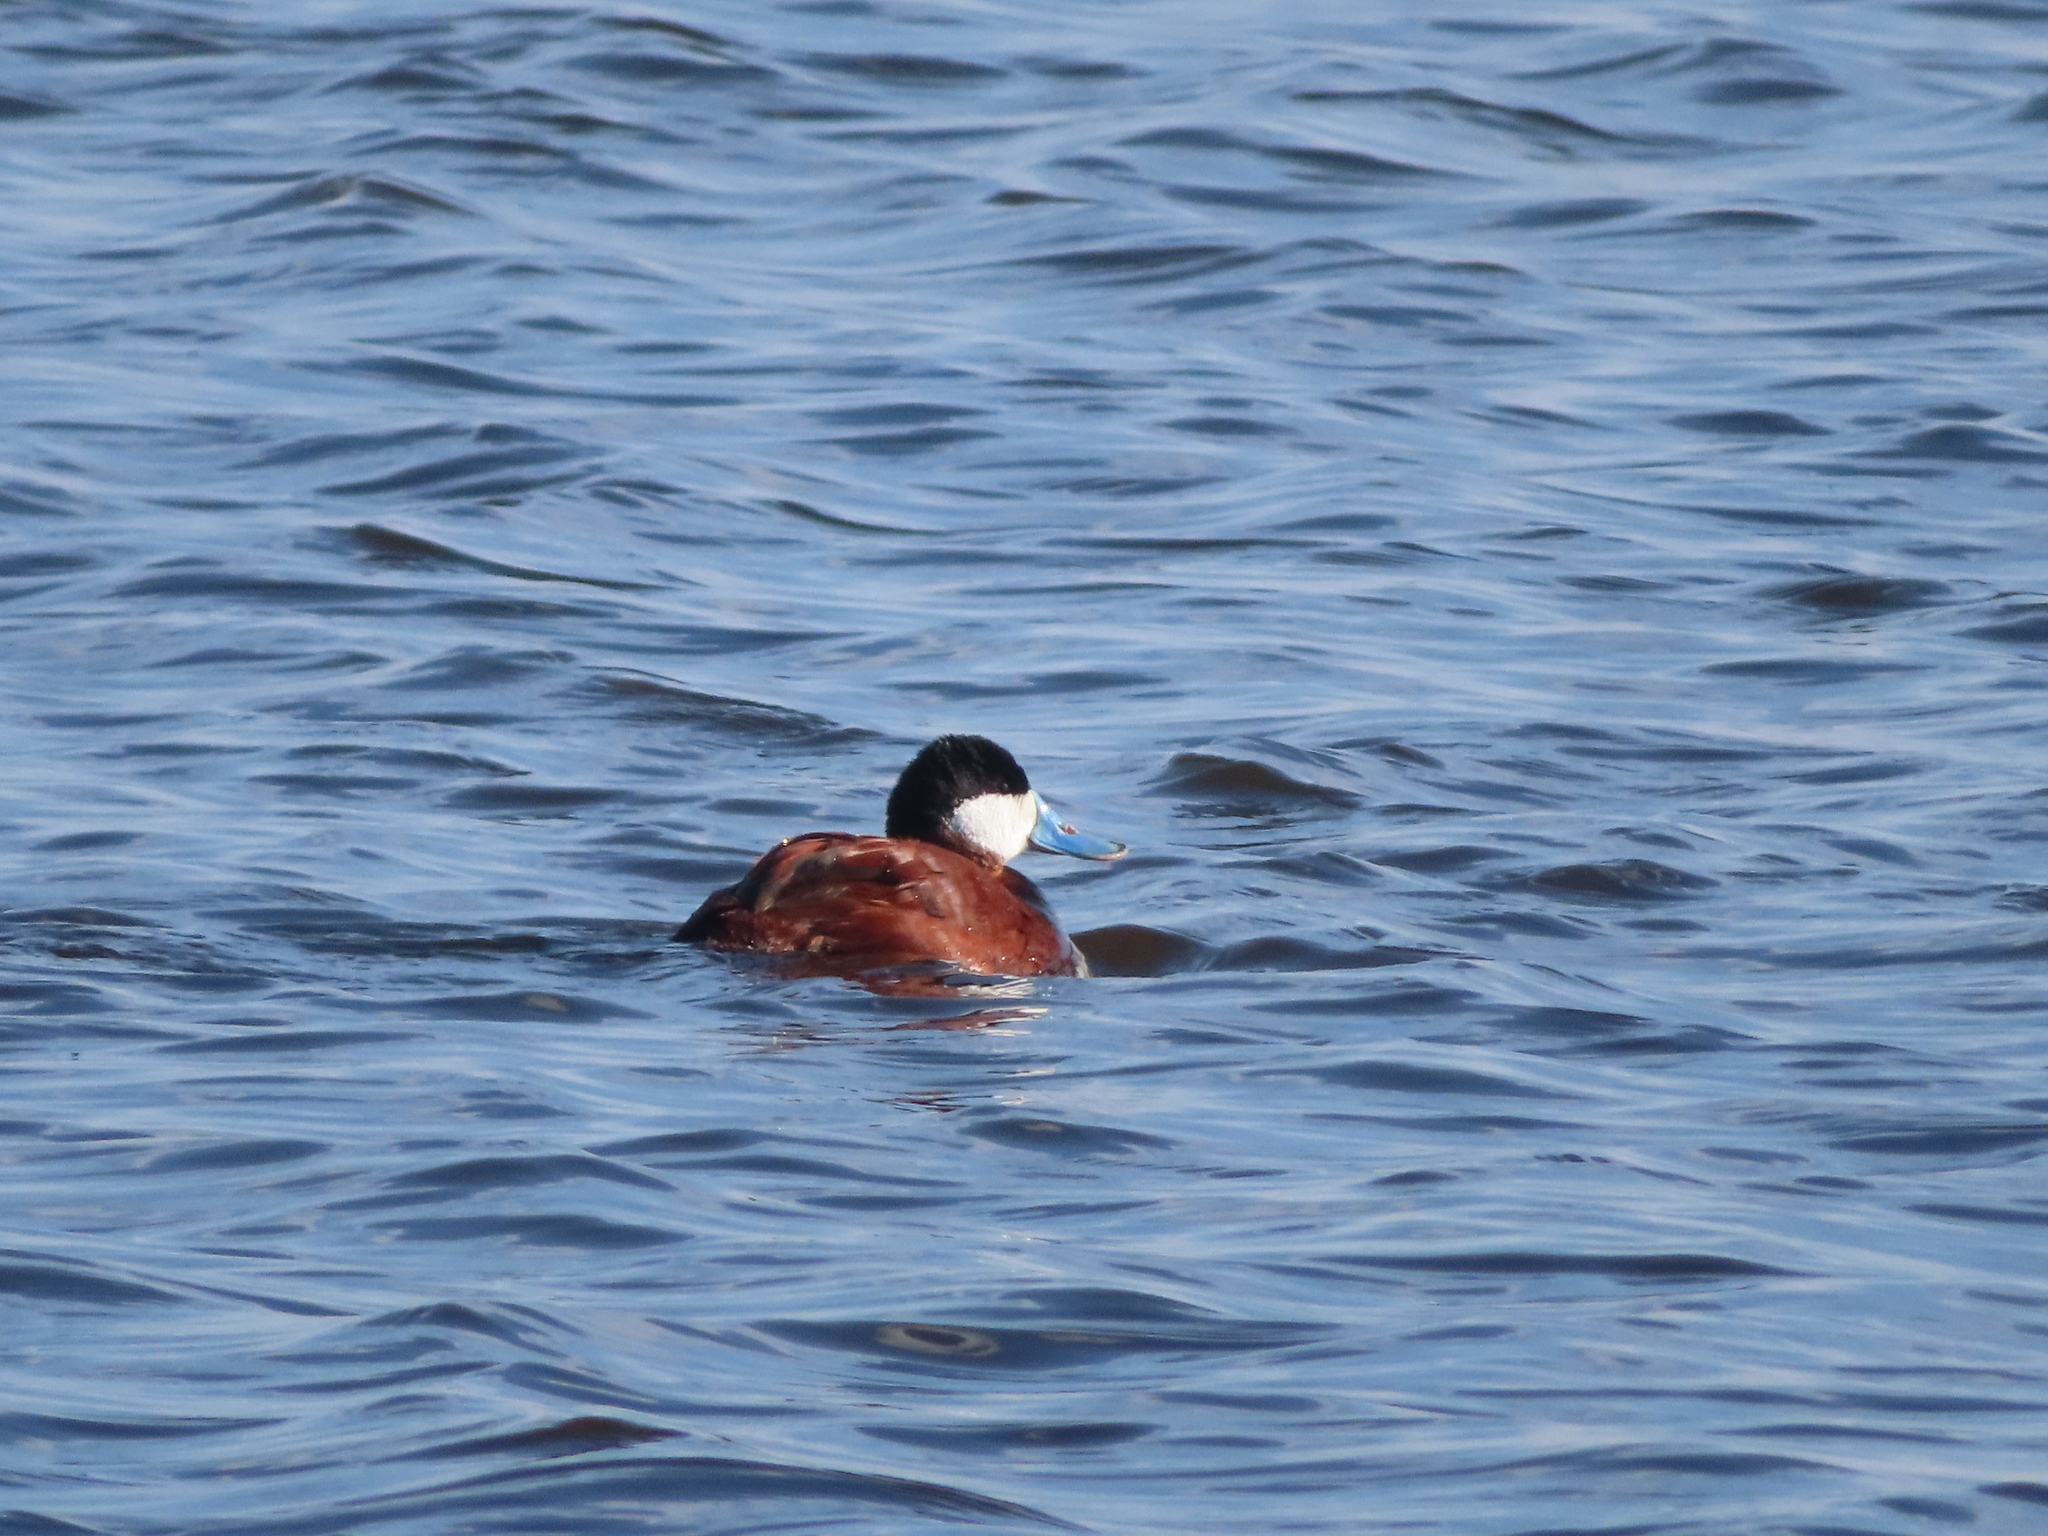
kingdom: Animalia
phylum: Chordata
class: Aves
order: Anseriformes
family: Anatidae
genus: Oxyura
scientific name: Oxyura jamaicensis
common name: Ruddy duck
